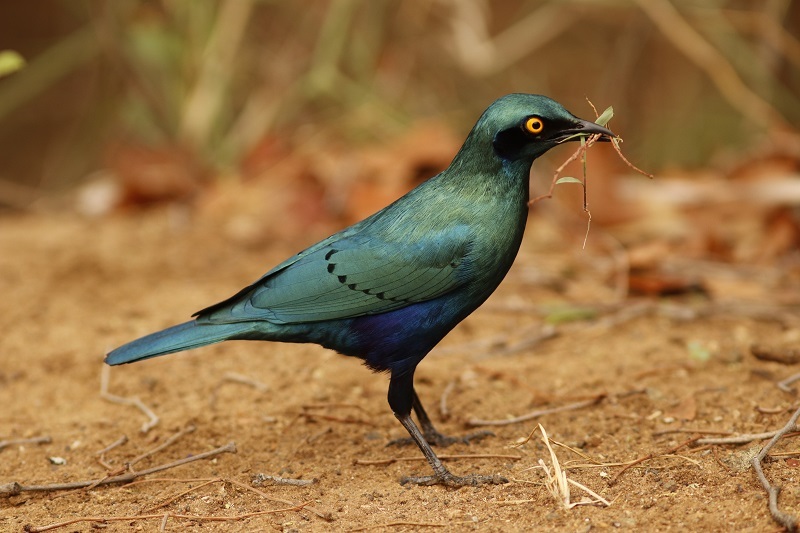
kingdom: Animalia
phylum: Chordata
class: Aves
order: Passeriformes
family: Sturnidae
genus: Lamprotornis
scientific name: Lamprotornis chalybaeus
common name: Greater blue-eared starling
